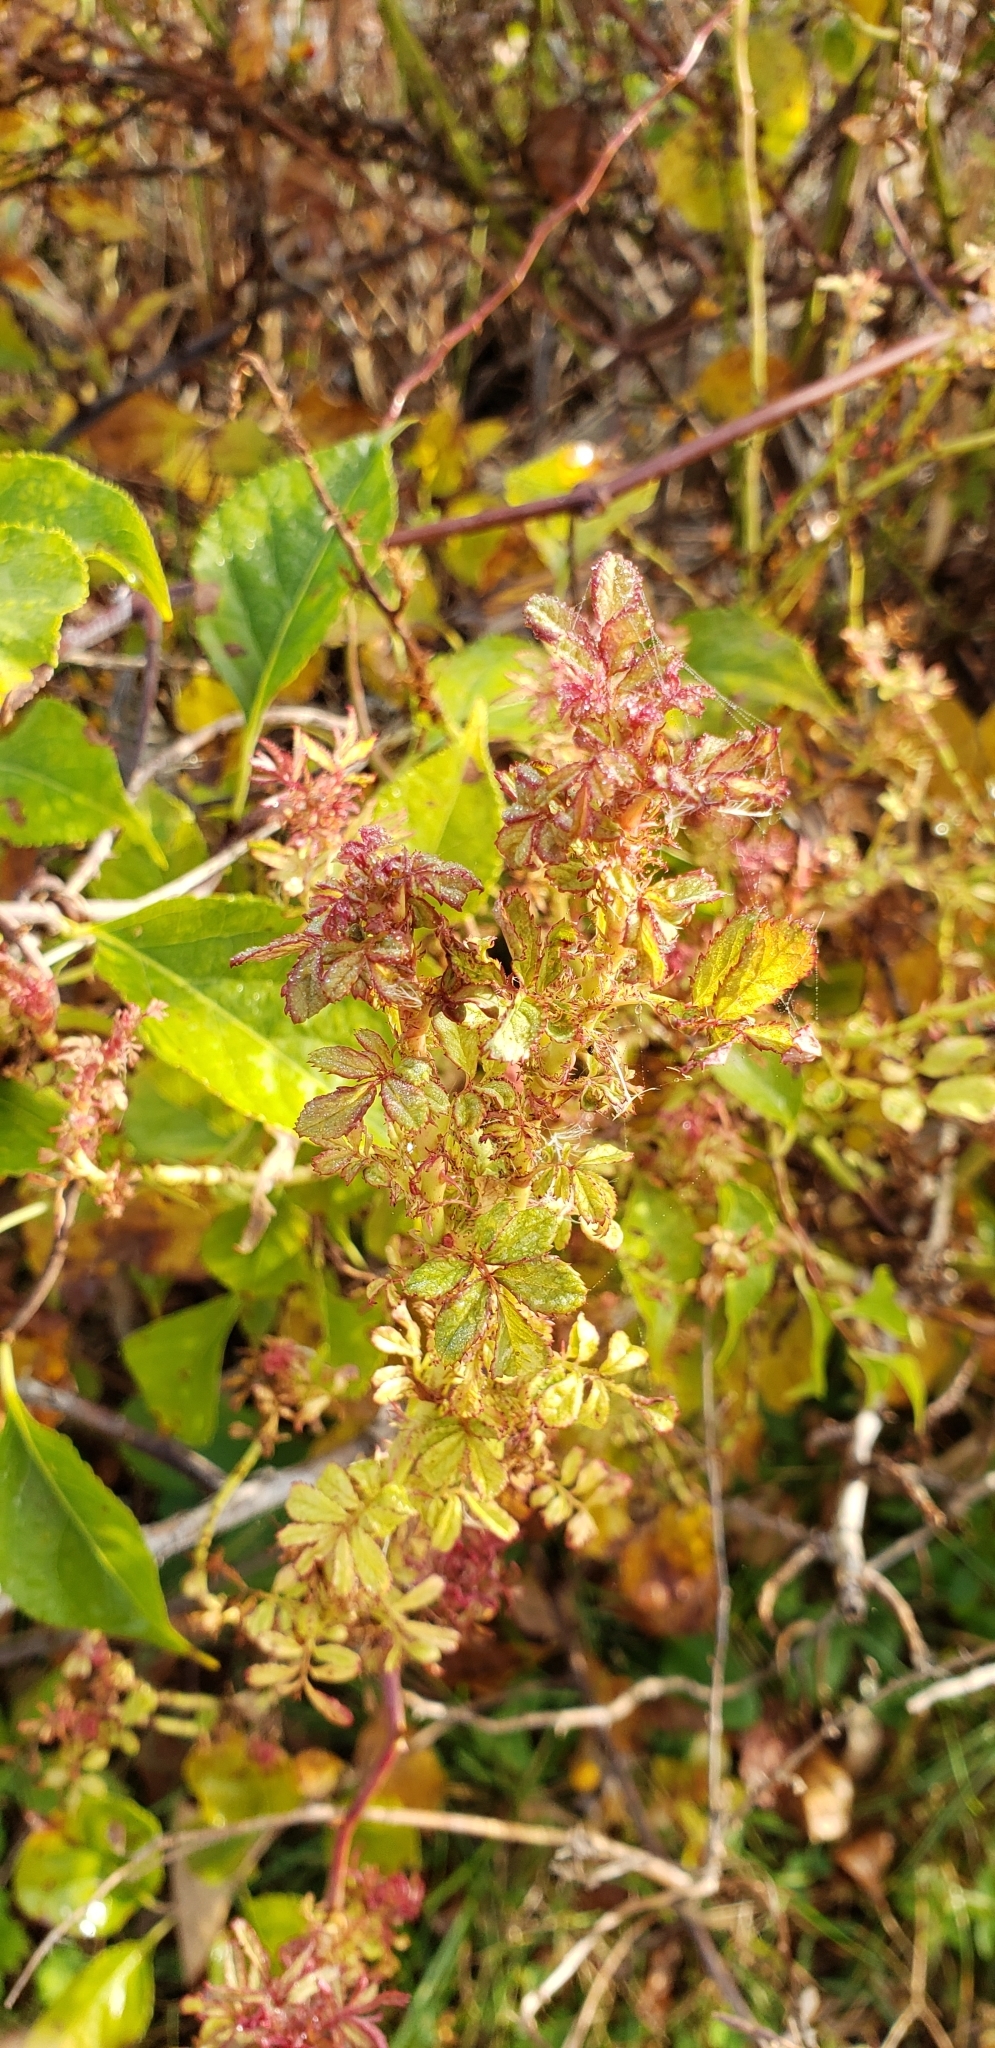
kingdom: Plantae
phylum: Tracheophyta
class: Magnoliopsida
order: Rosales
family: Rosaceae
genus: Rosa
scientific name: Rosa multiflora
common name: Multiflora rose
